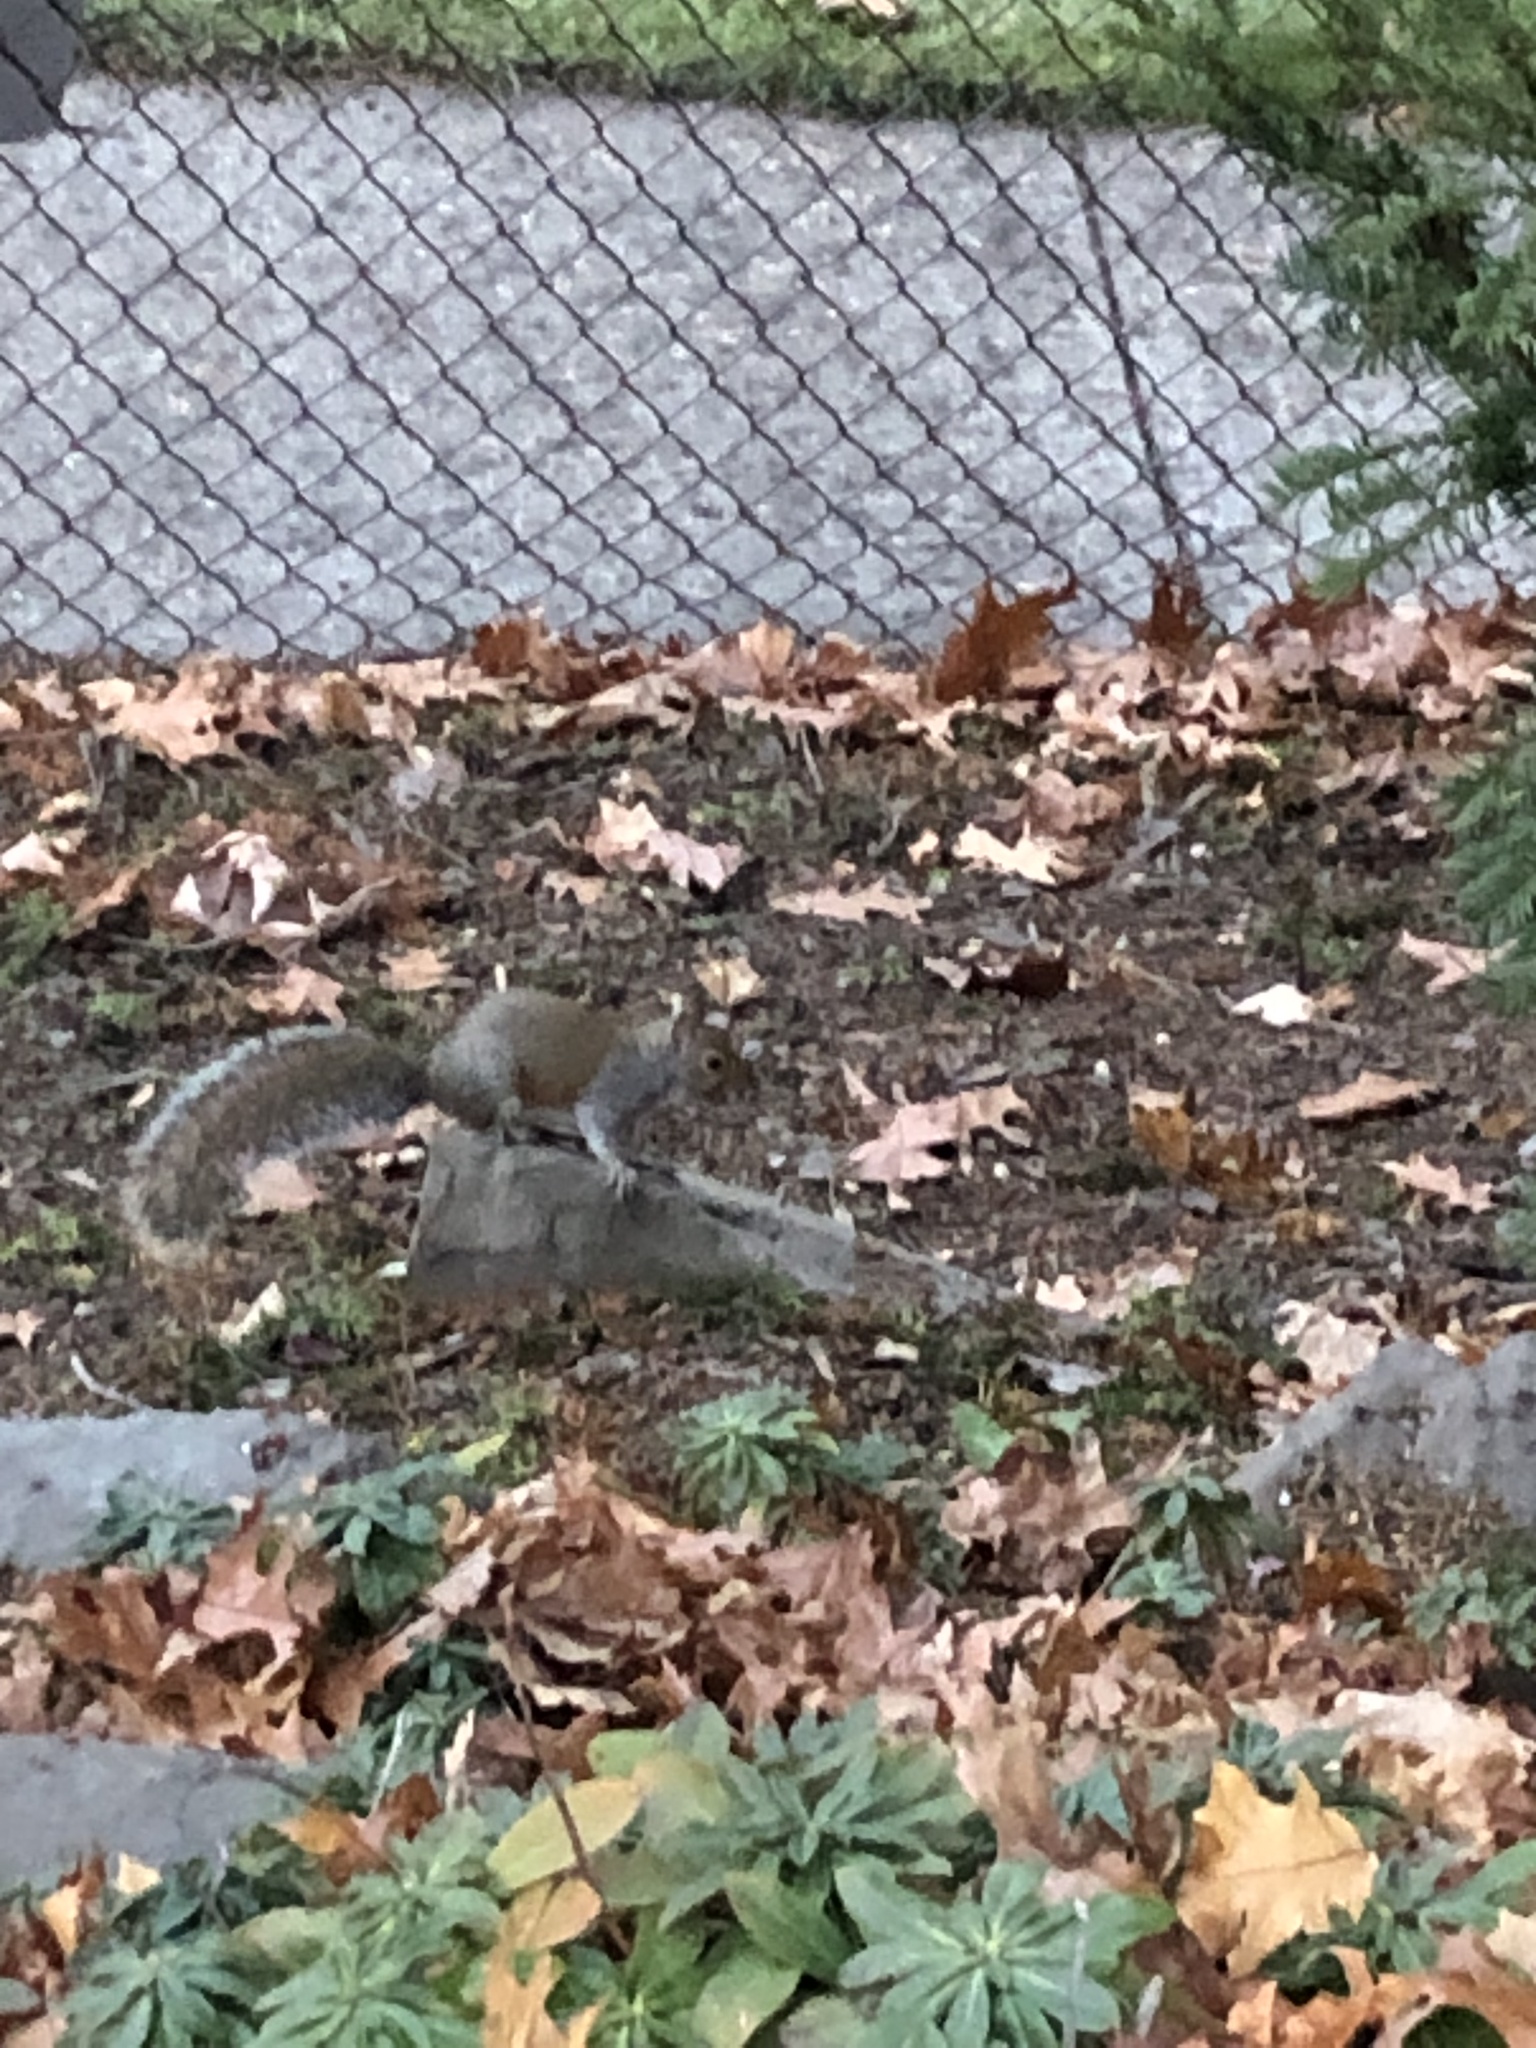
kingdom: Animalia
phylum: Chordata
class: Mammalia
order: Rodentia
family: Sciuridae
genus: Sciurus
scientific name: Sciurus carolinensis
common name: Eastern gray squirrel
